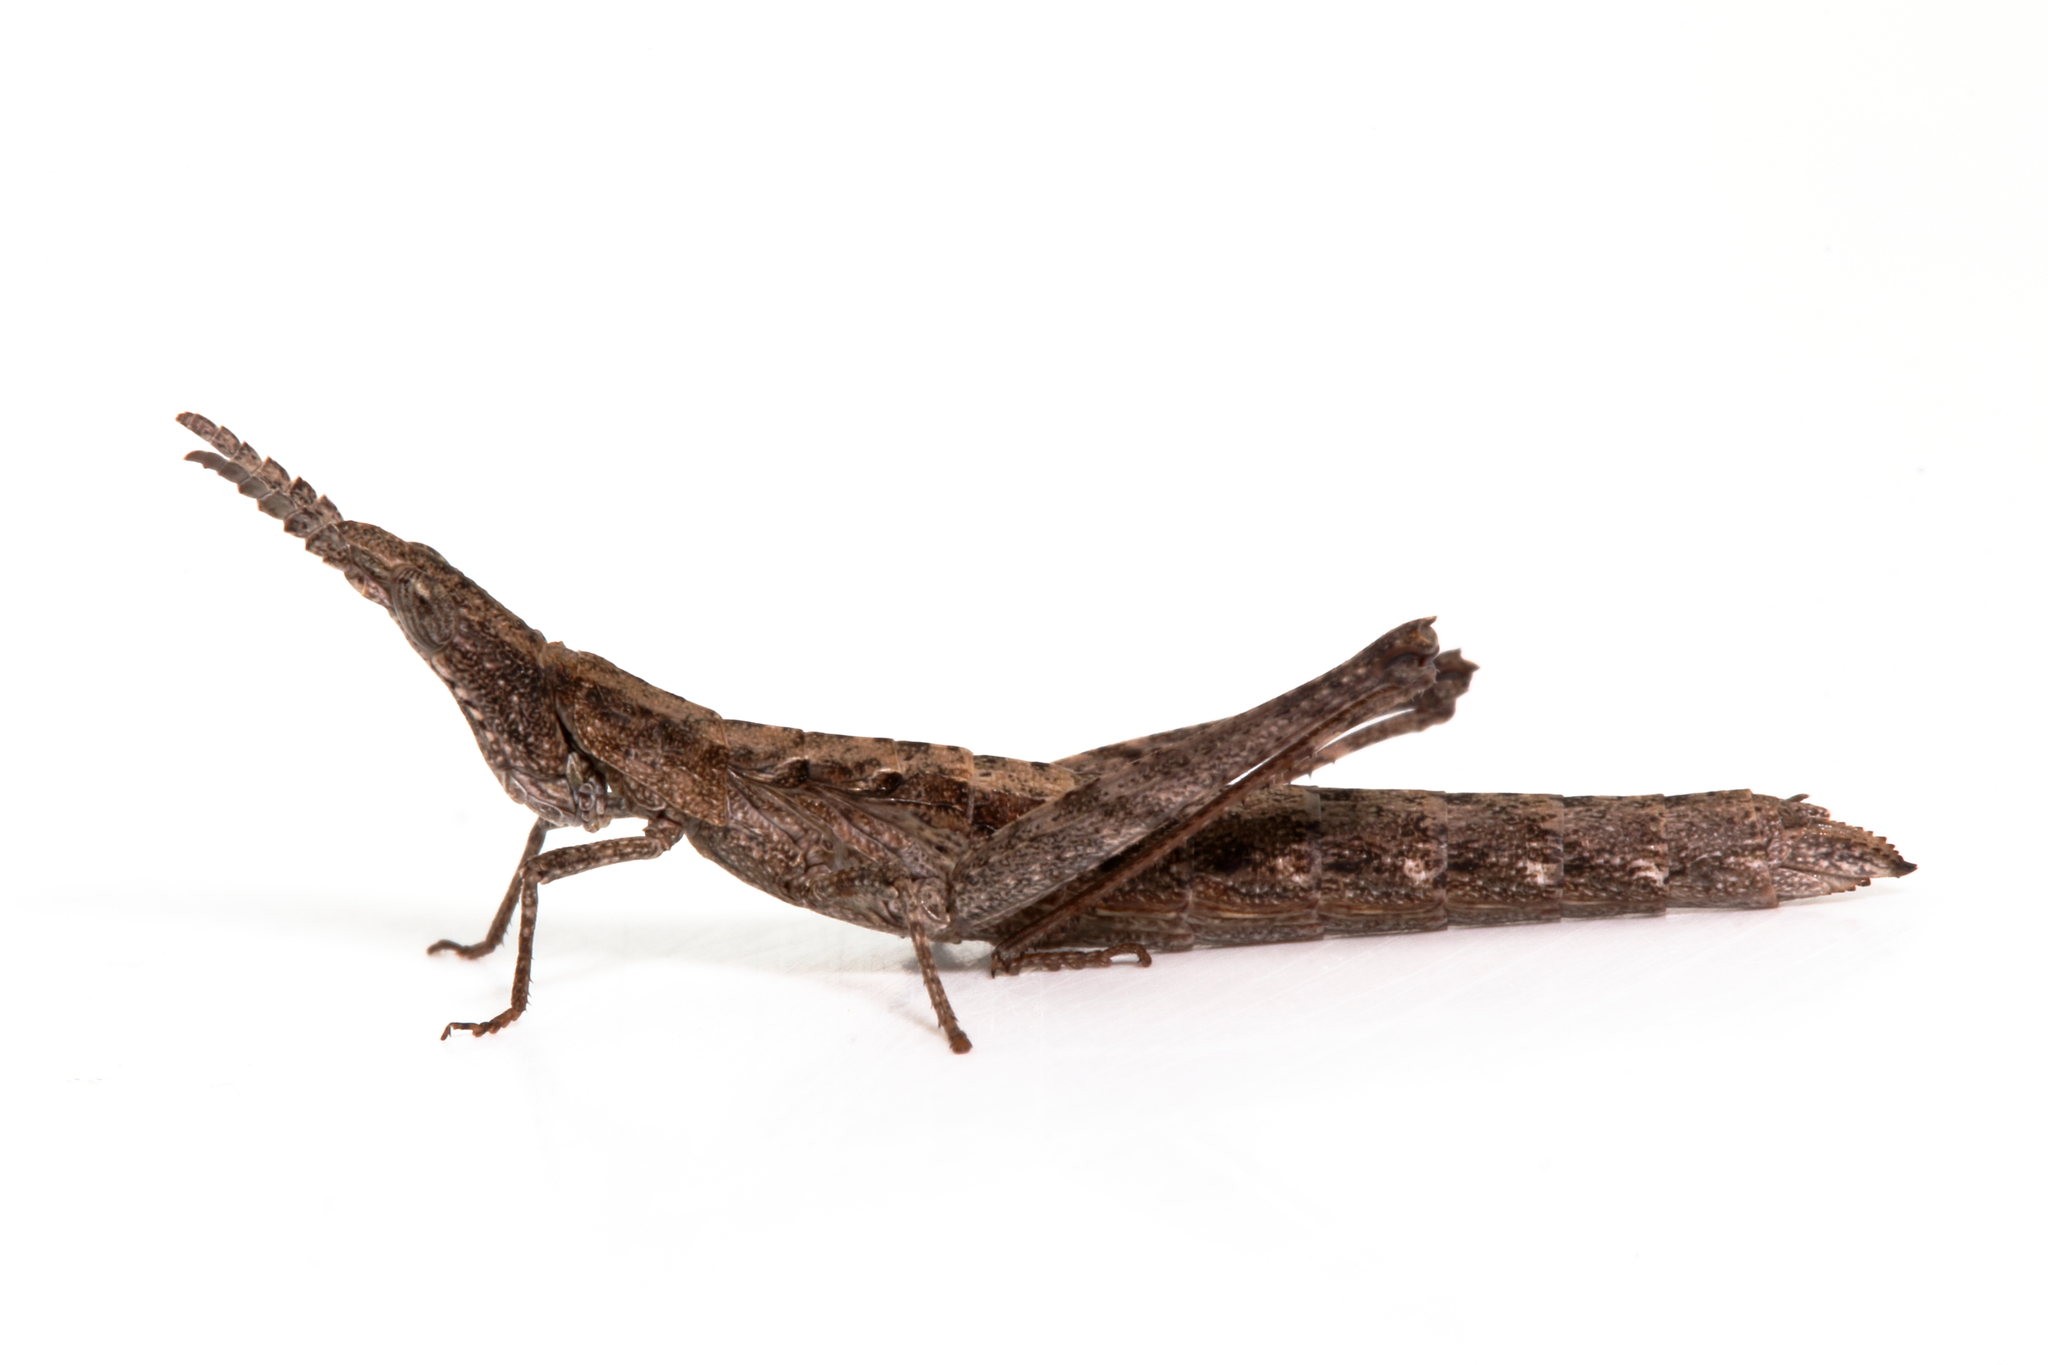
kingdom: Animalia
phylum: Arthropoda
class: Insecta
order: Orthoptera
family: Morabidae
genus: Keyacris
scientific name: Keyacris scurra
